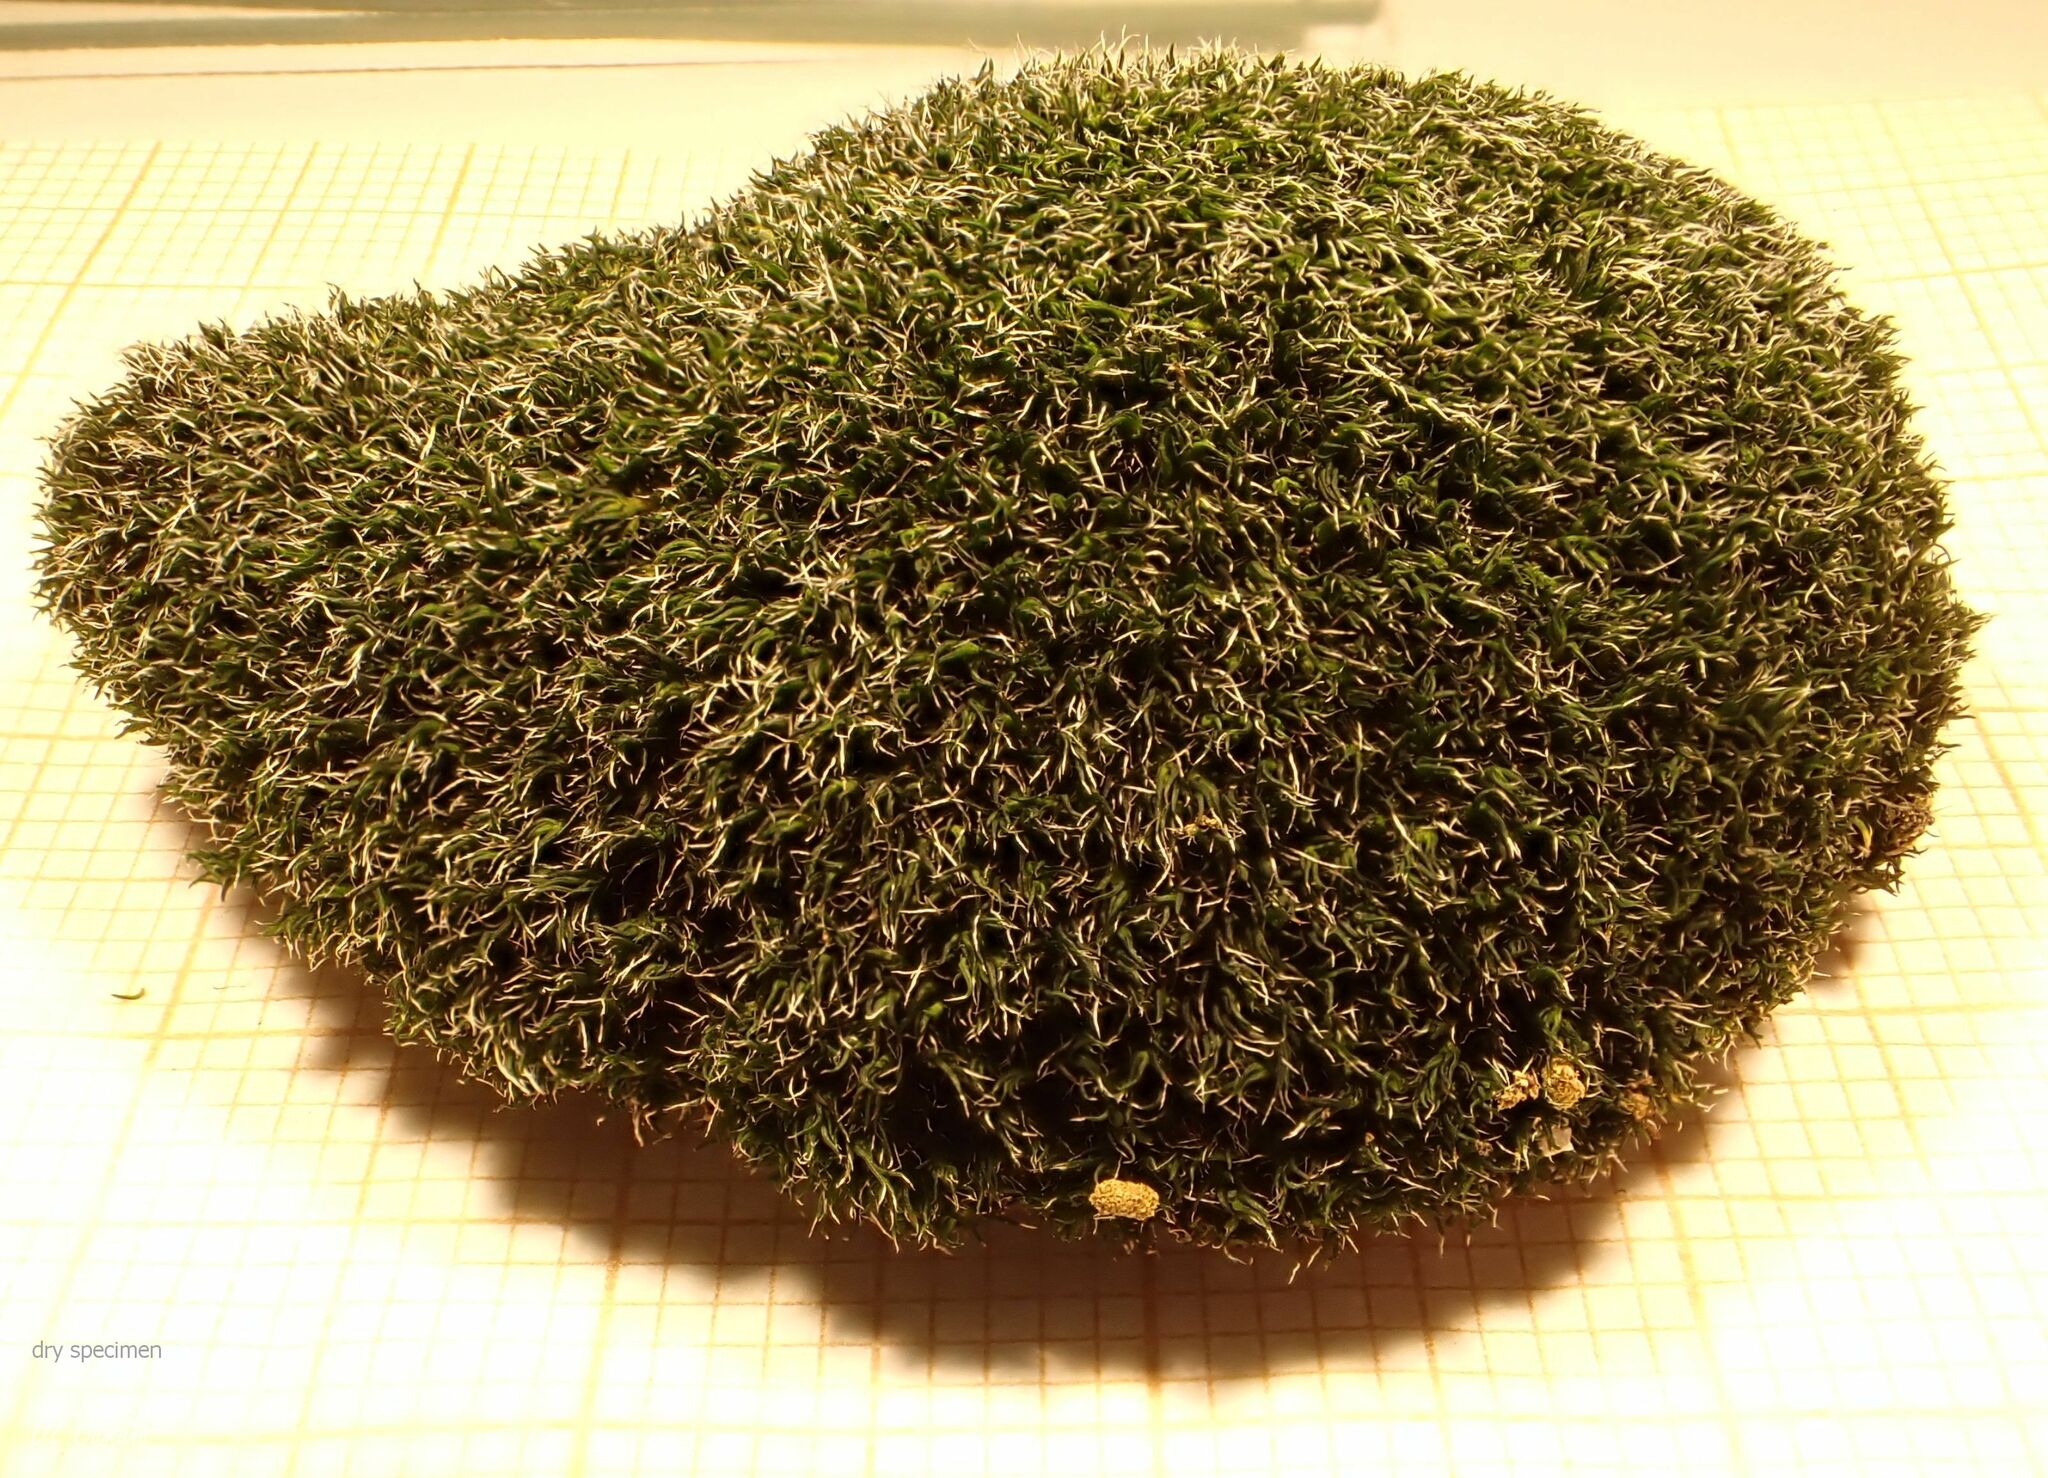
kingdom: Plantae
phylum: Bryophyta
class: Bryopsida
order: Grimmiales
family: Grimmiaceae
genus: Grimmia
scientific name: Grimmia montana
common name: Sun grimmia
